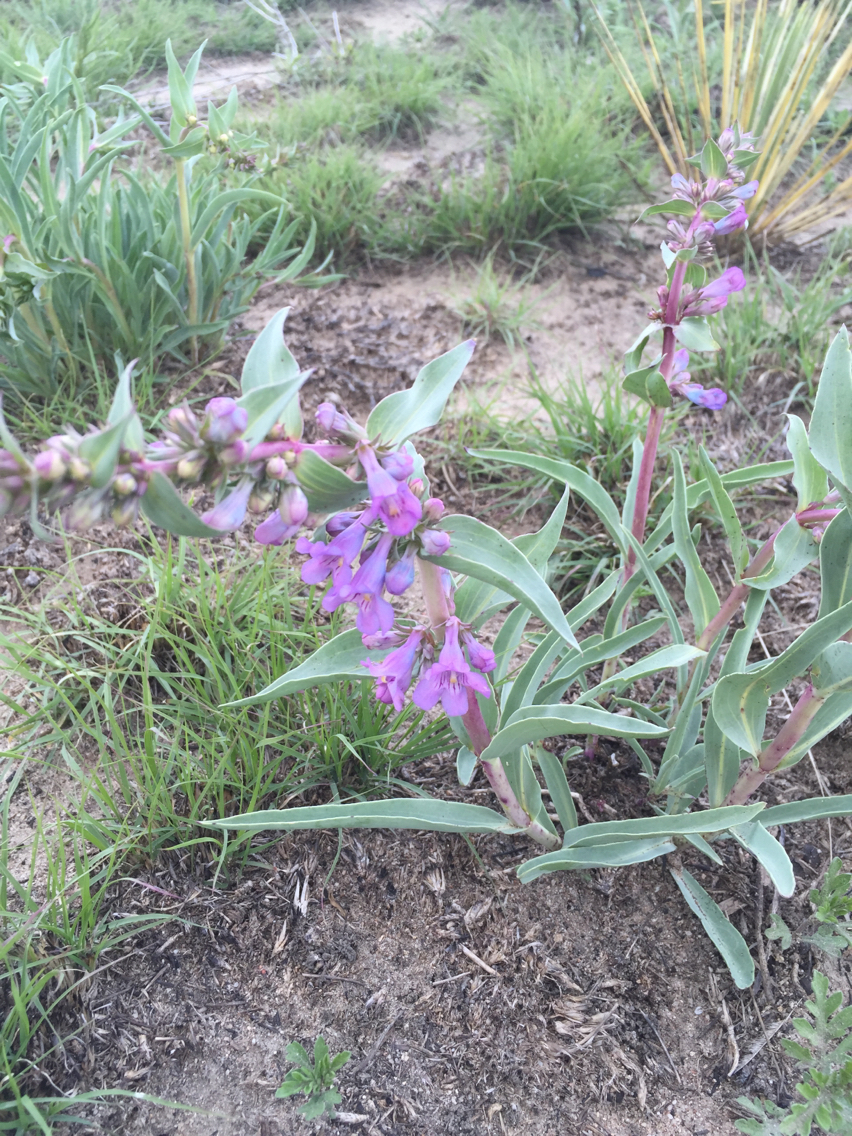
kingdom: Plantae
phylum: Tracheophyta
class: Magnoliopsida
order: Lamiales
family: Plantaginaceae
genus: Penstemon
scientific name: Penstemon secundiflorus
